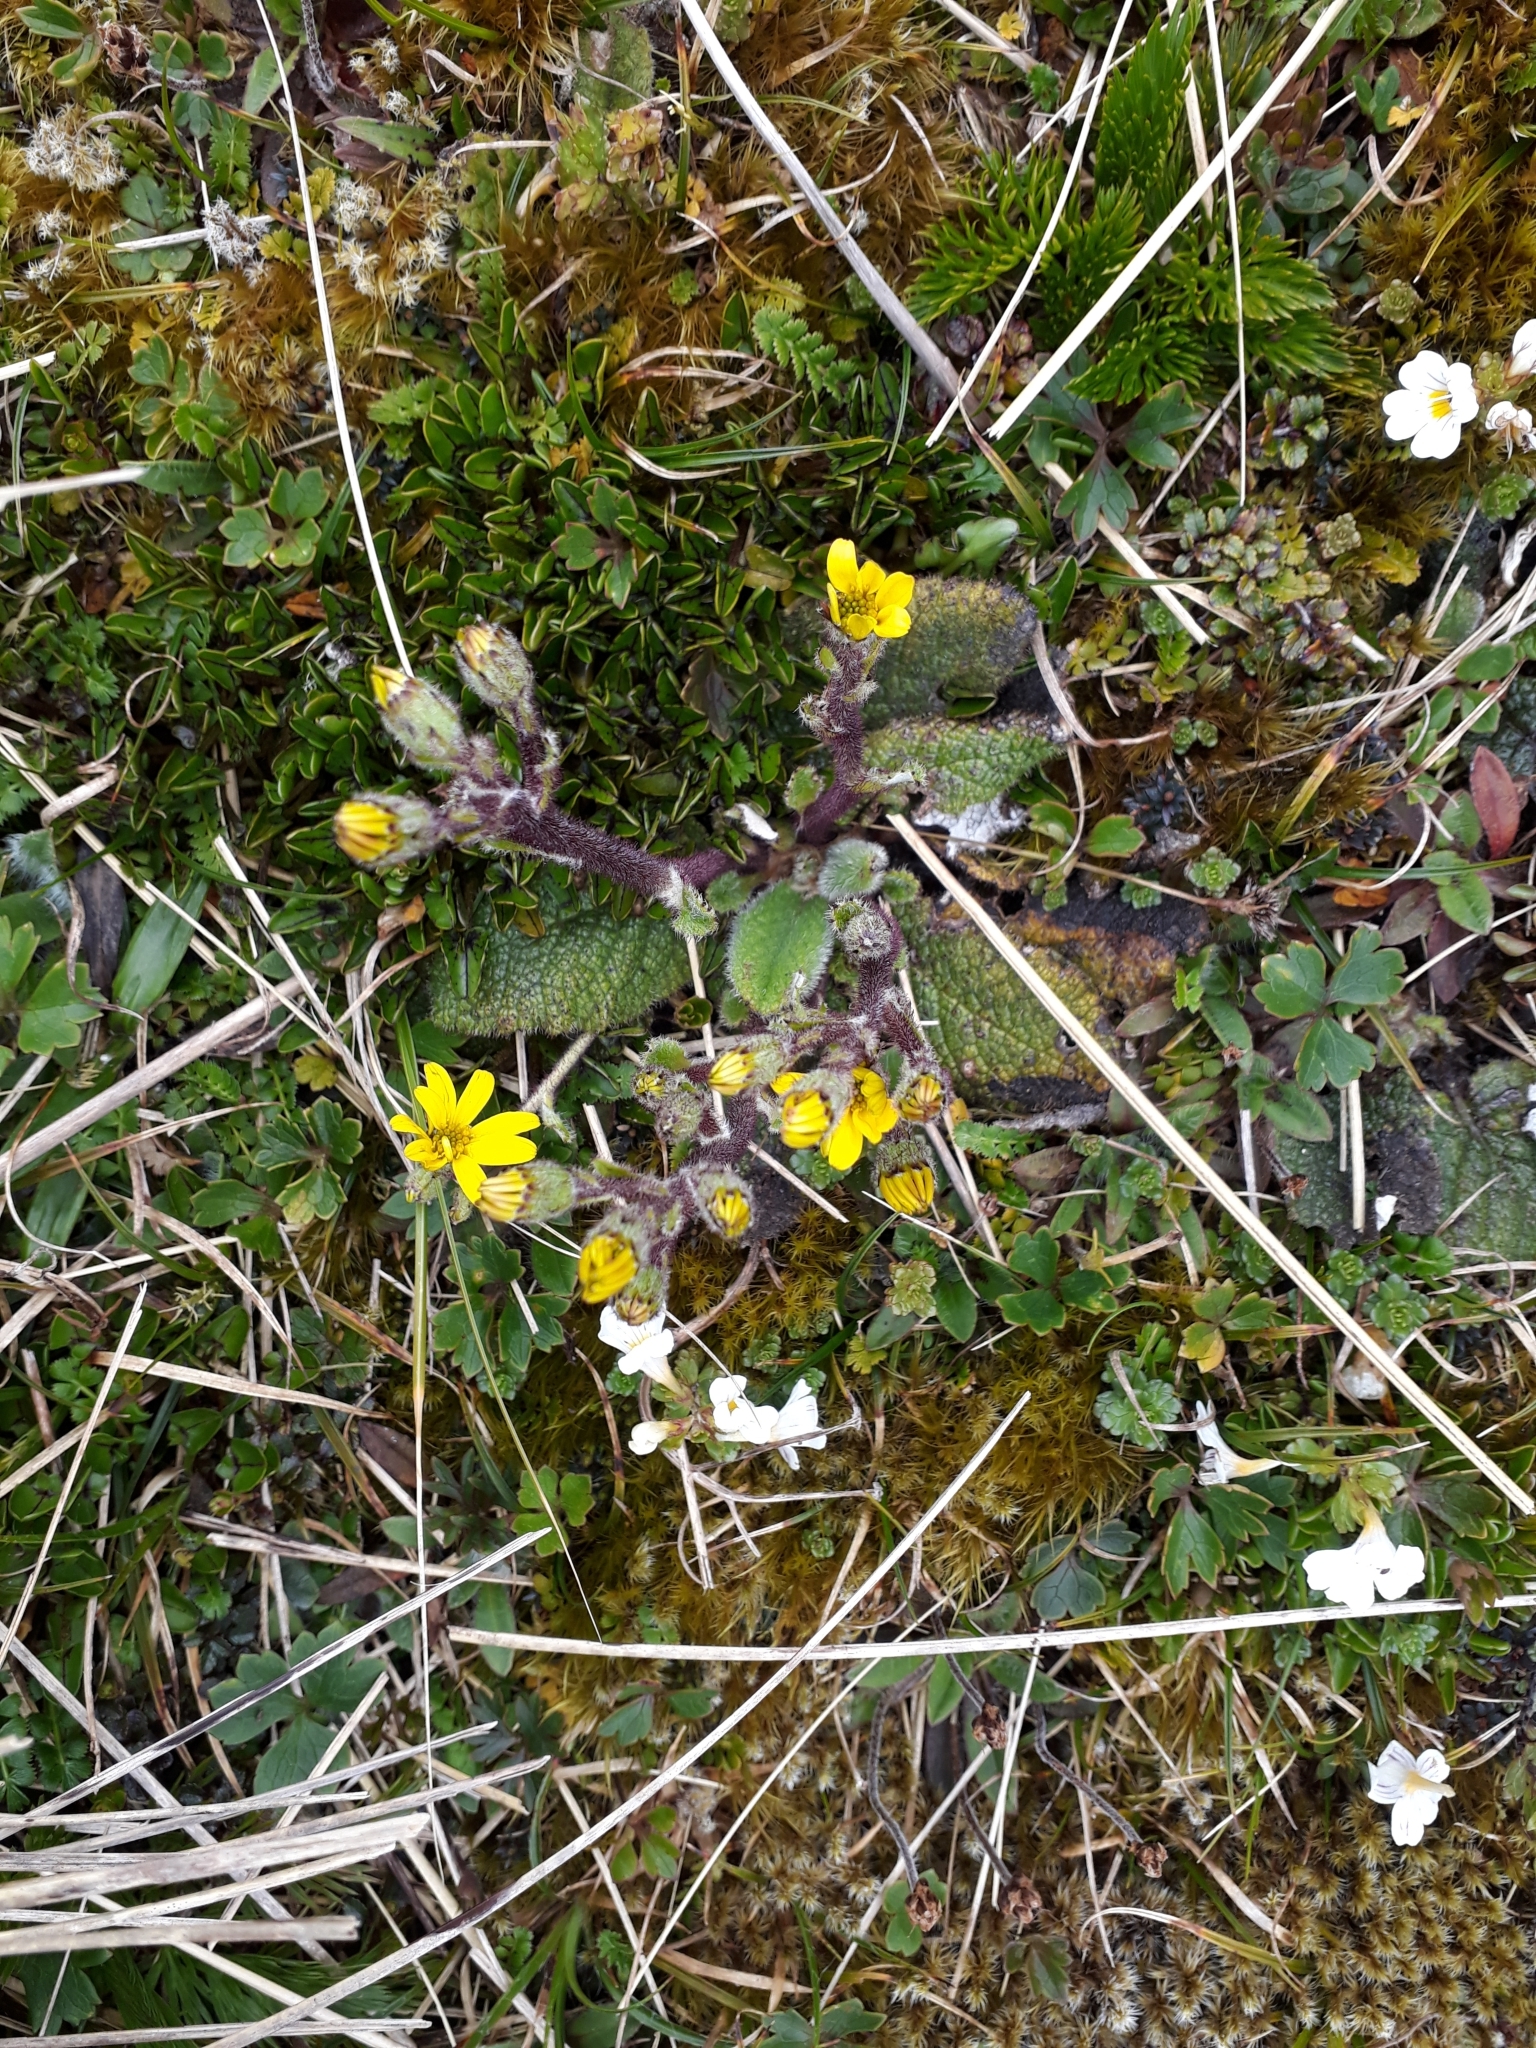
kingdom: Plantae
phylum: Tracheophyta
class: Magnoliopsida
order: Asterales
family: Asteraceae
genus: Brachyglottis
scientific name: Brachyglottis lagopus
